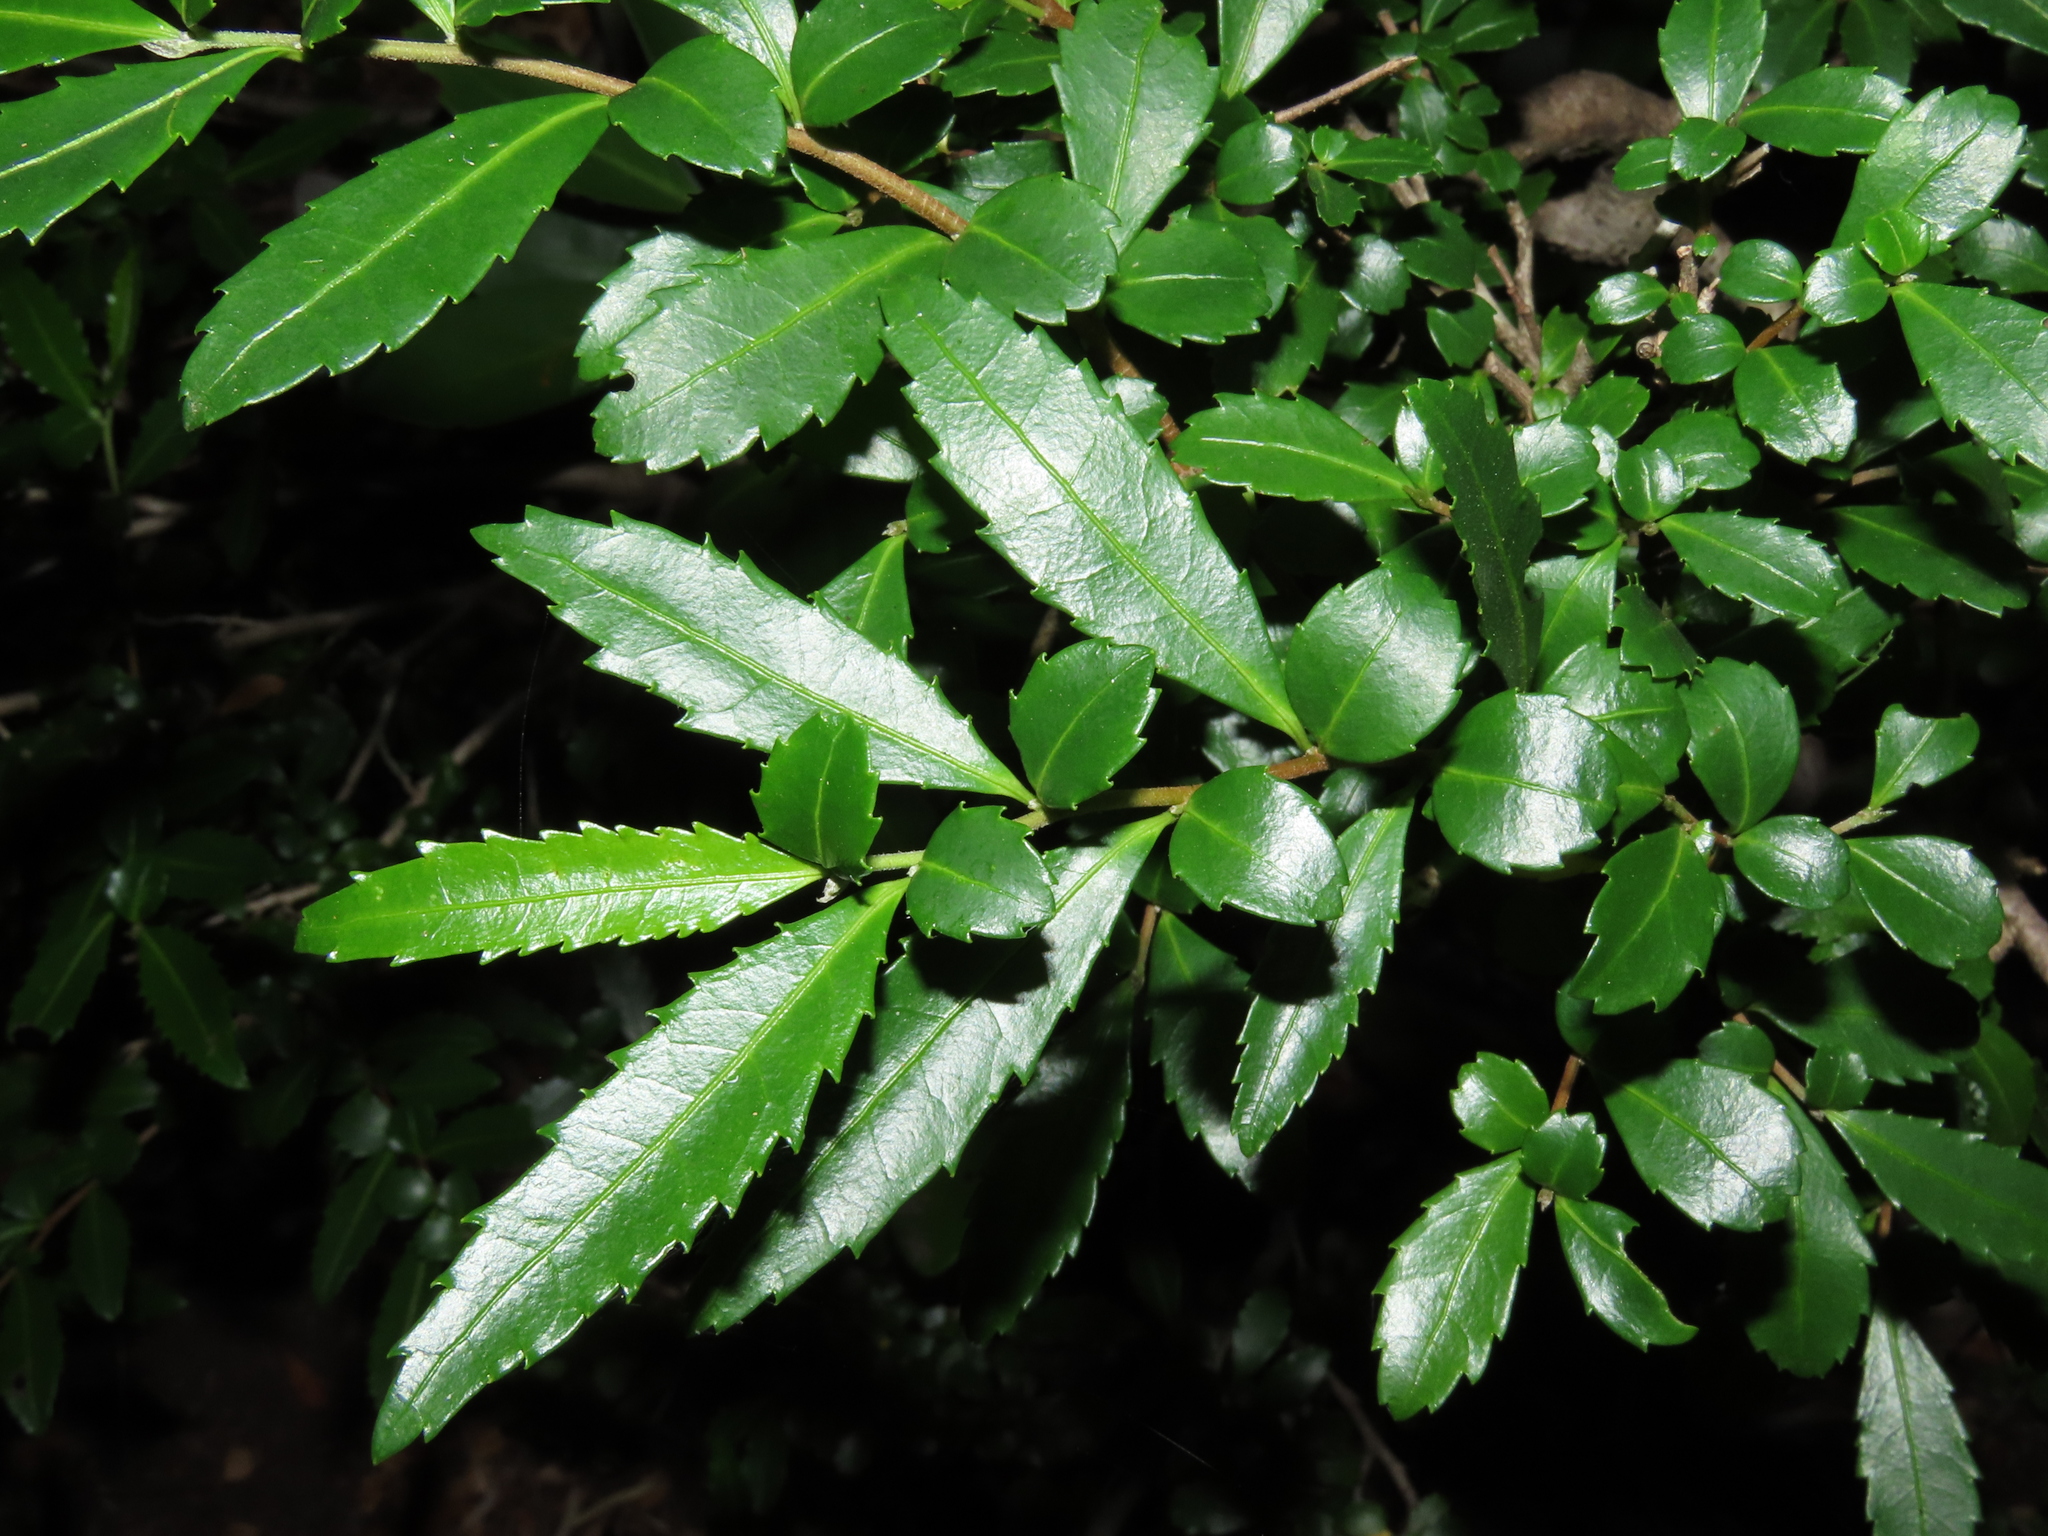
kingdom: Plantae
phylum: Tracheophyta
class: Magnoliopsida
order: Malpighiales
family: Salicaceae
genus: Azara
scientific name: Azara lanceolata
